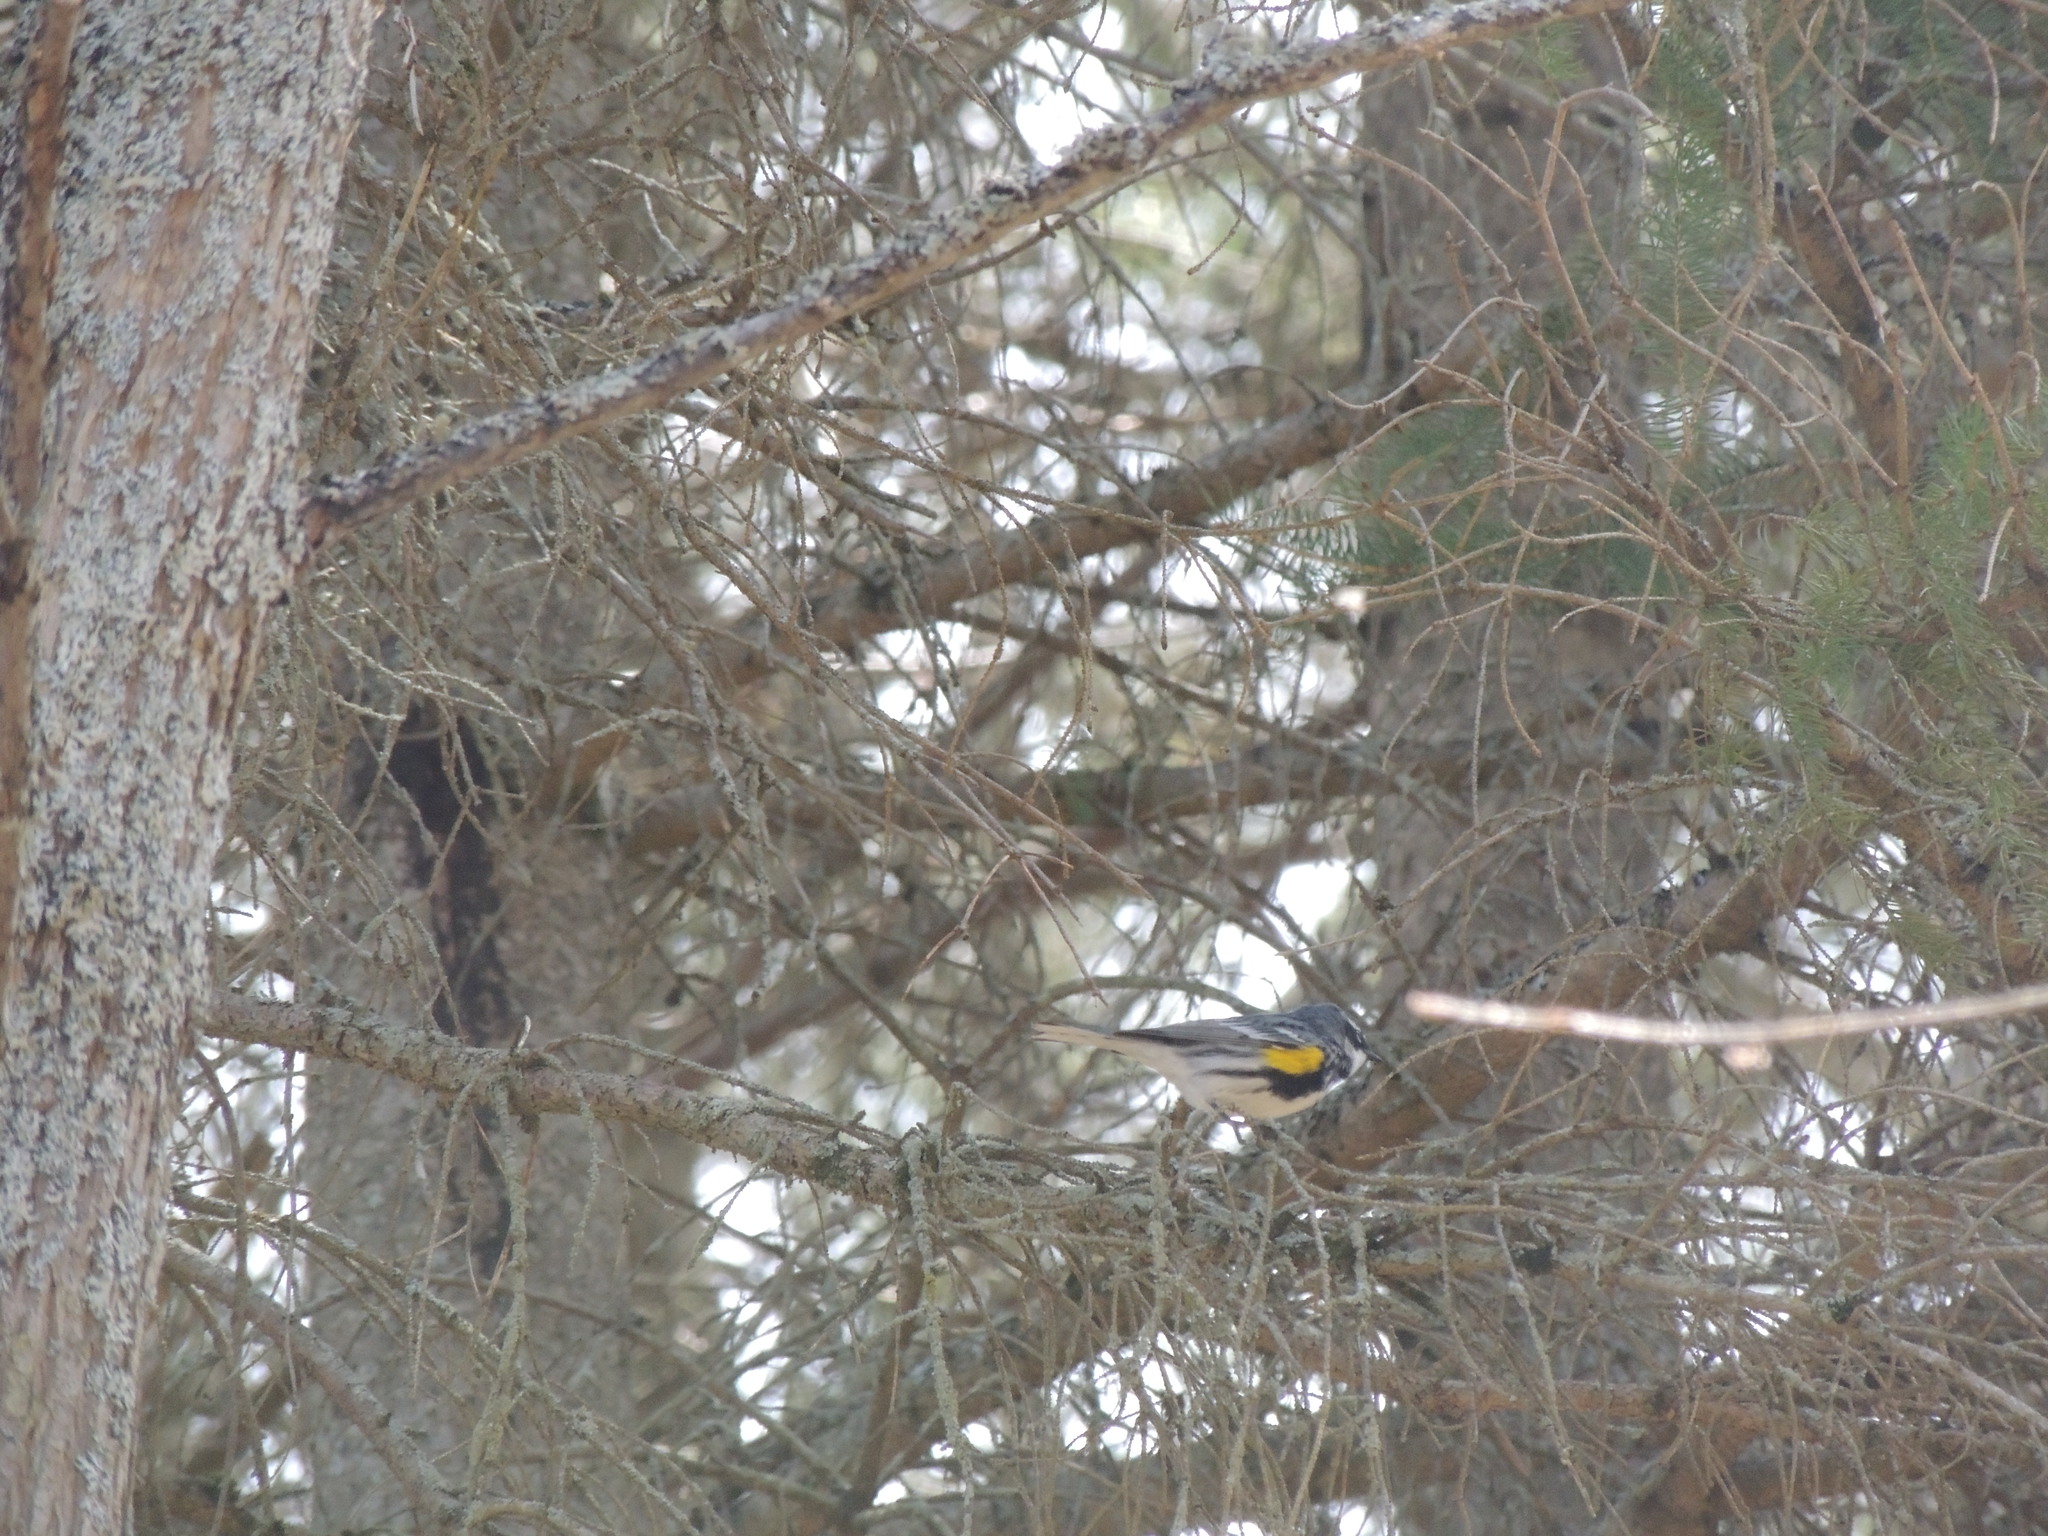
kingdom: Animalia
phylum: Chordata
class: Aves
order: Passeriformes
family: Parulidae
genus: Setophaga
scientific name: Setophaga coronata
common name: Myrtle warbler
